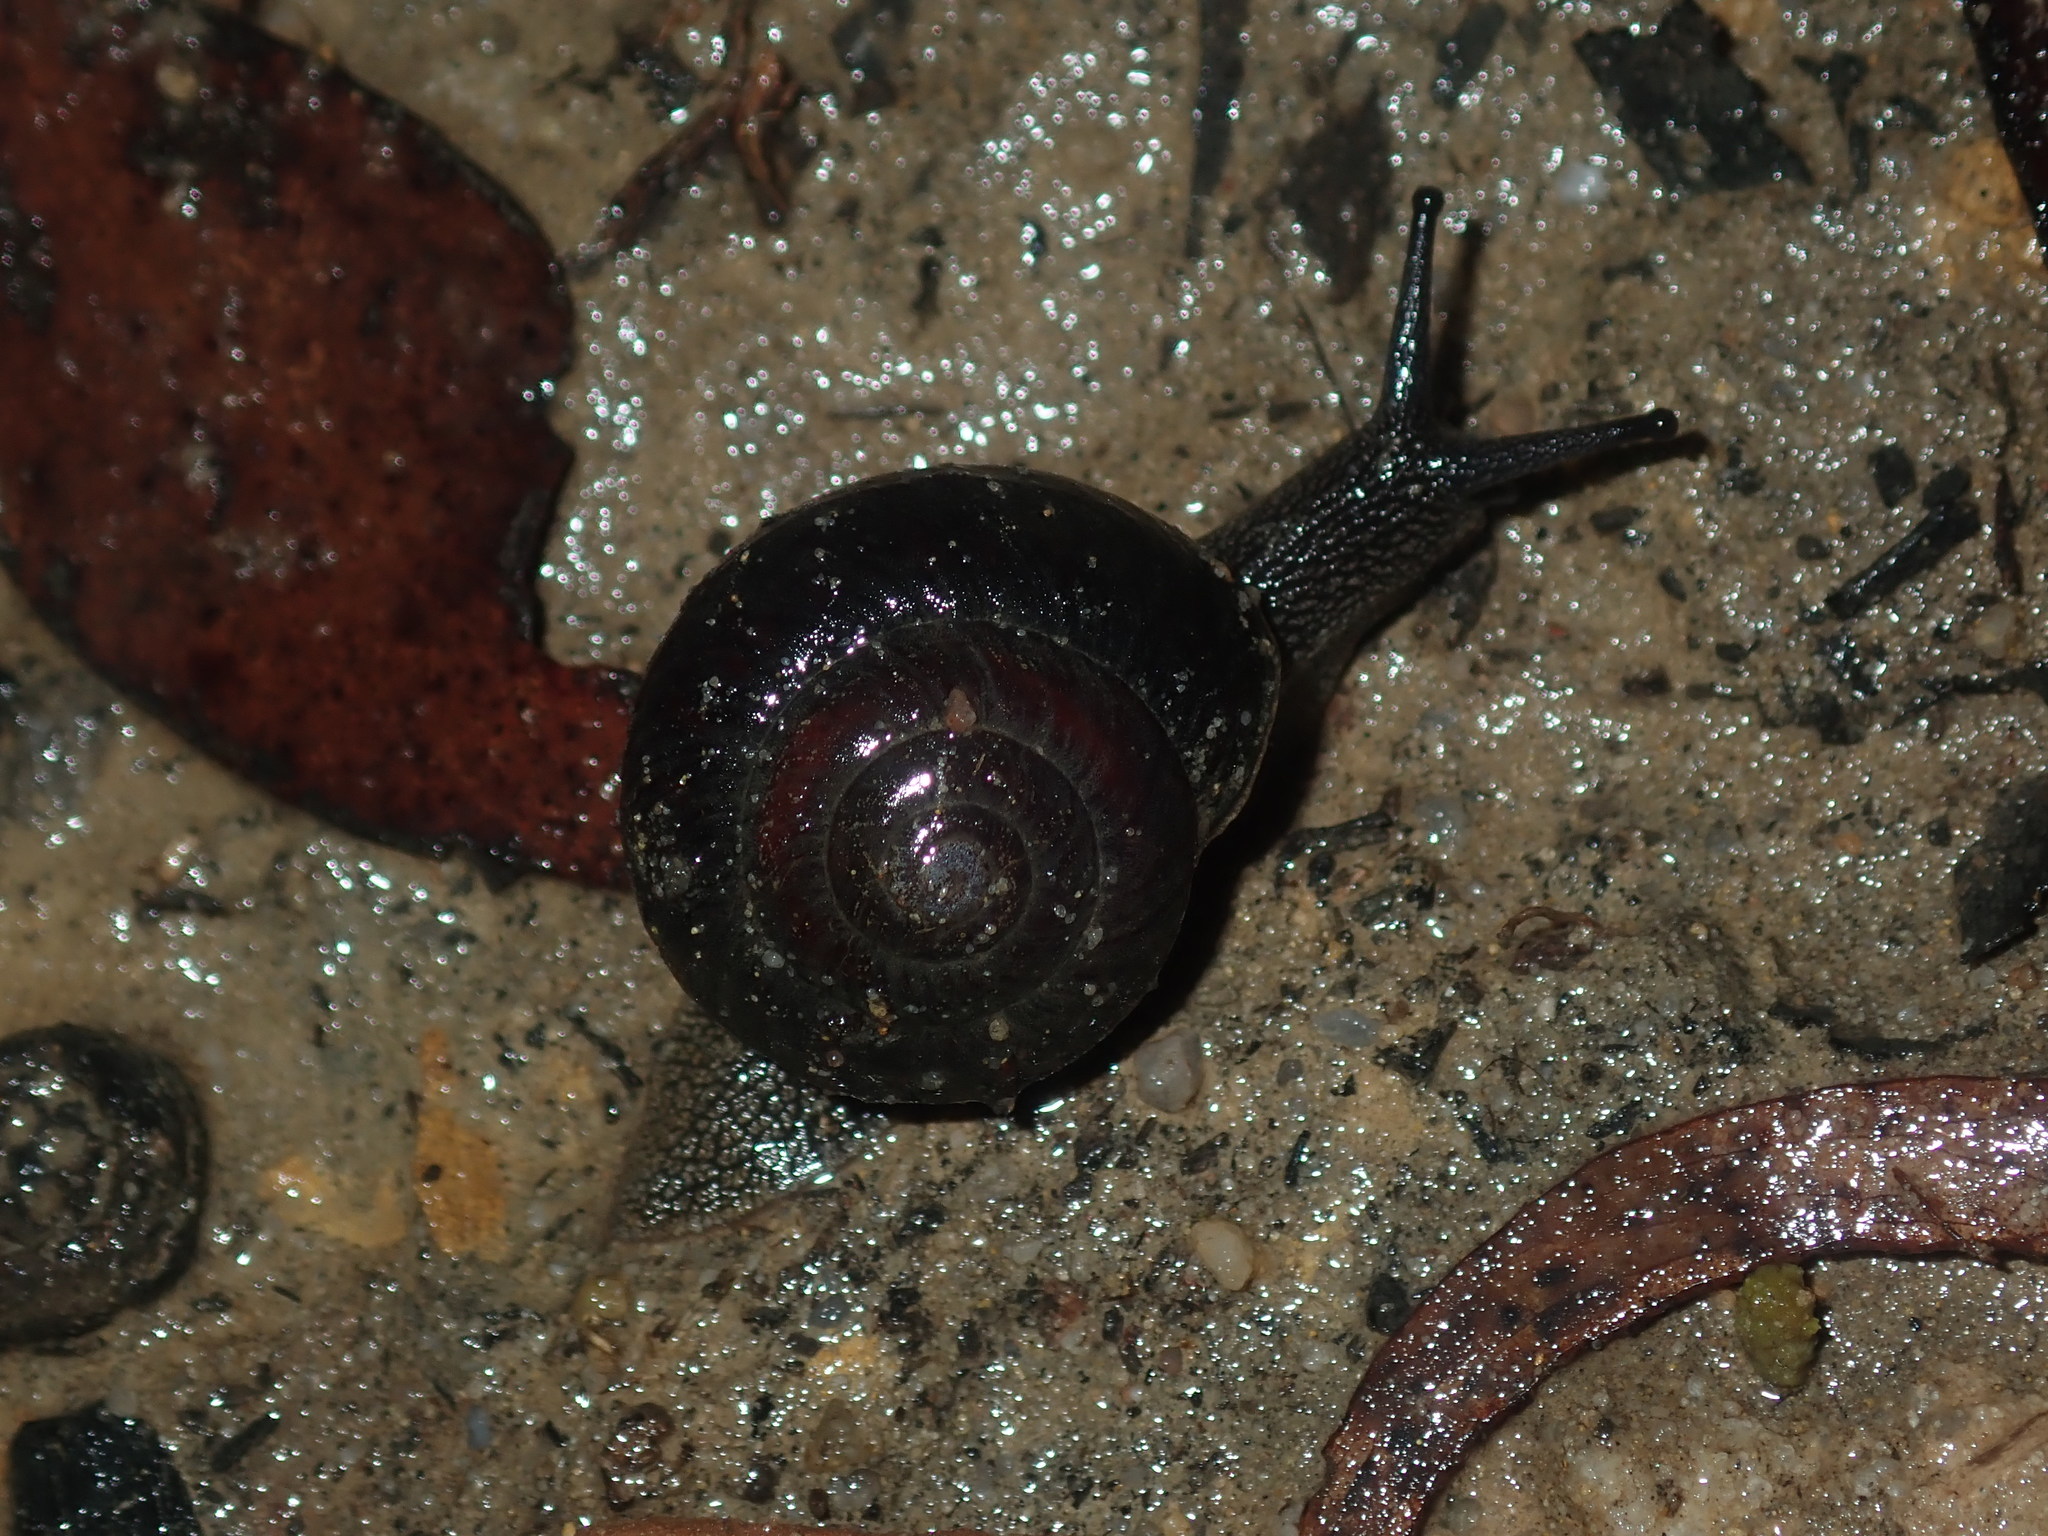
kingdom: Animalia
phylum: Mollusca
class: Gastropoda
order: Stylommatophora
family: Camaenidae
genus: Pommerhelix
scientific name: Pommerhelix monacha
